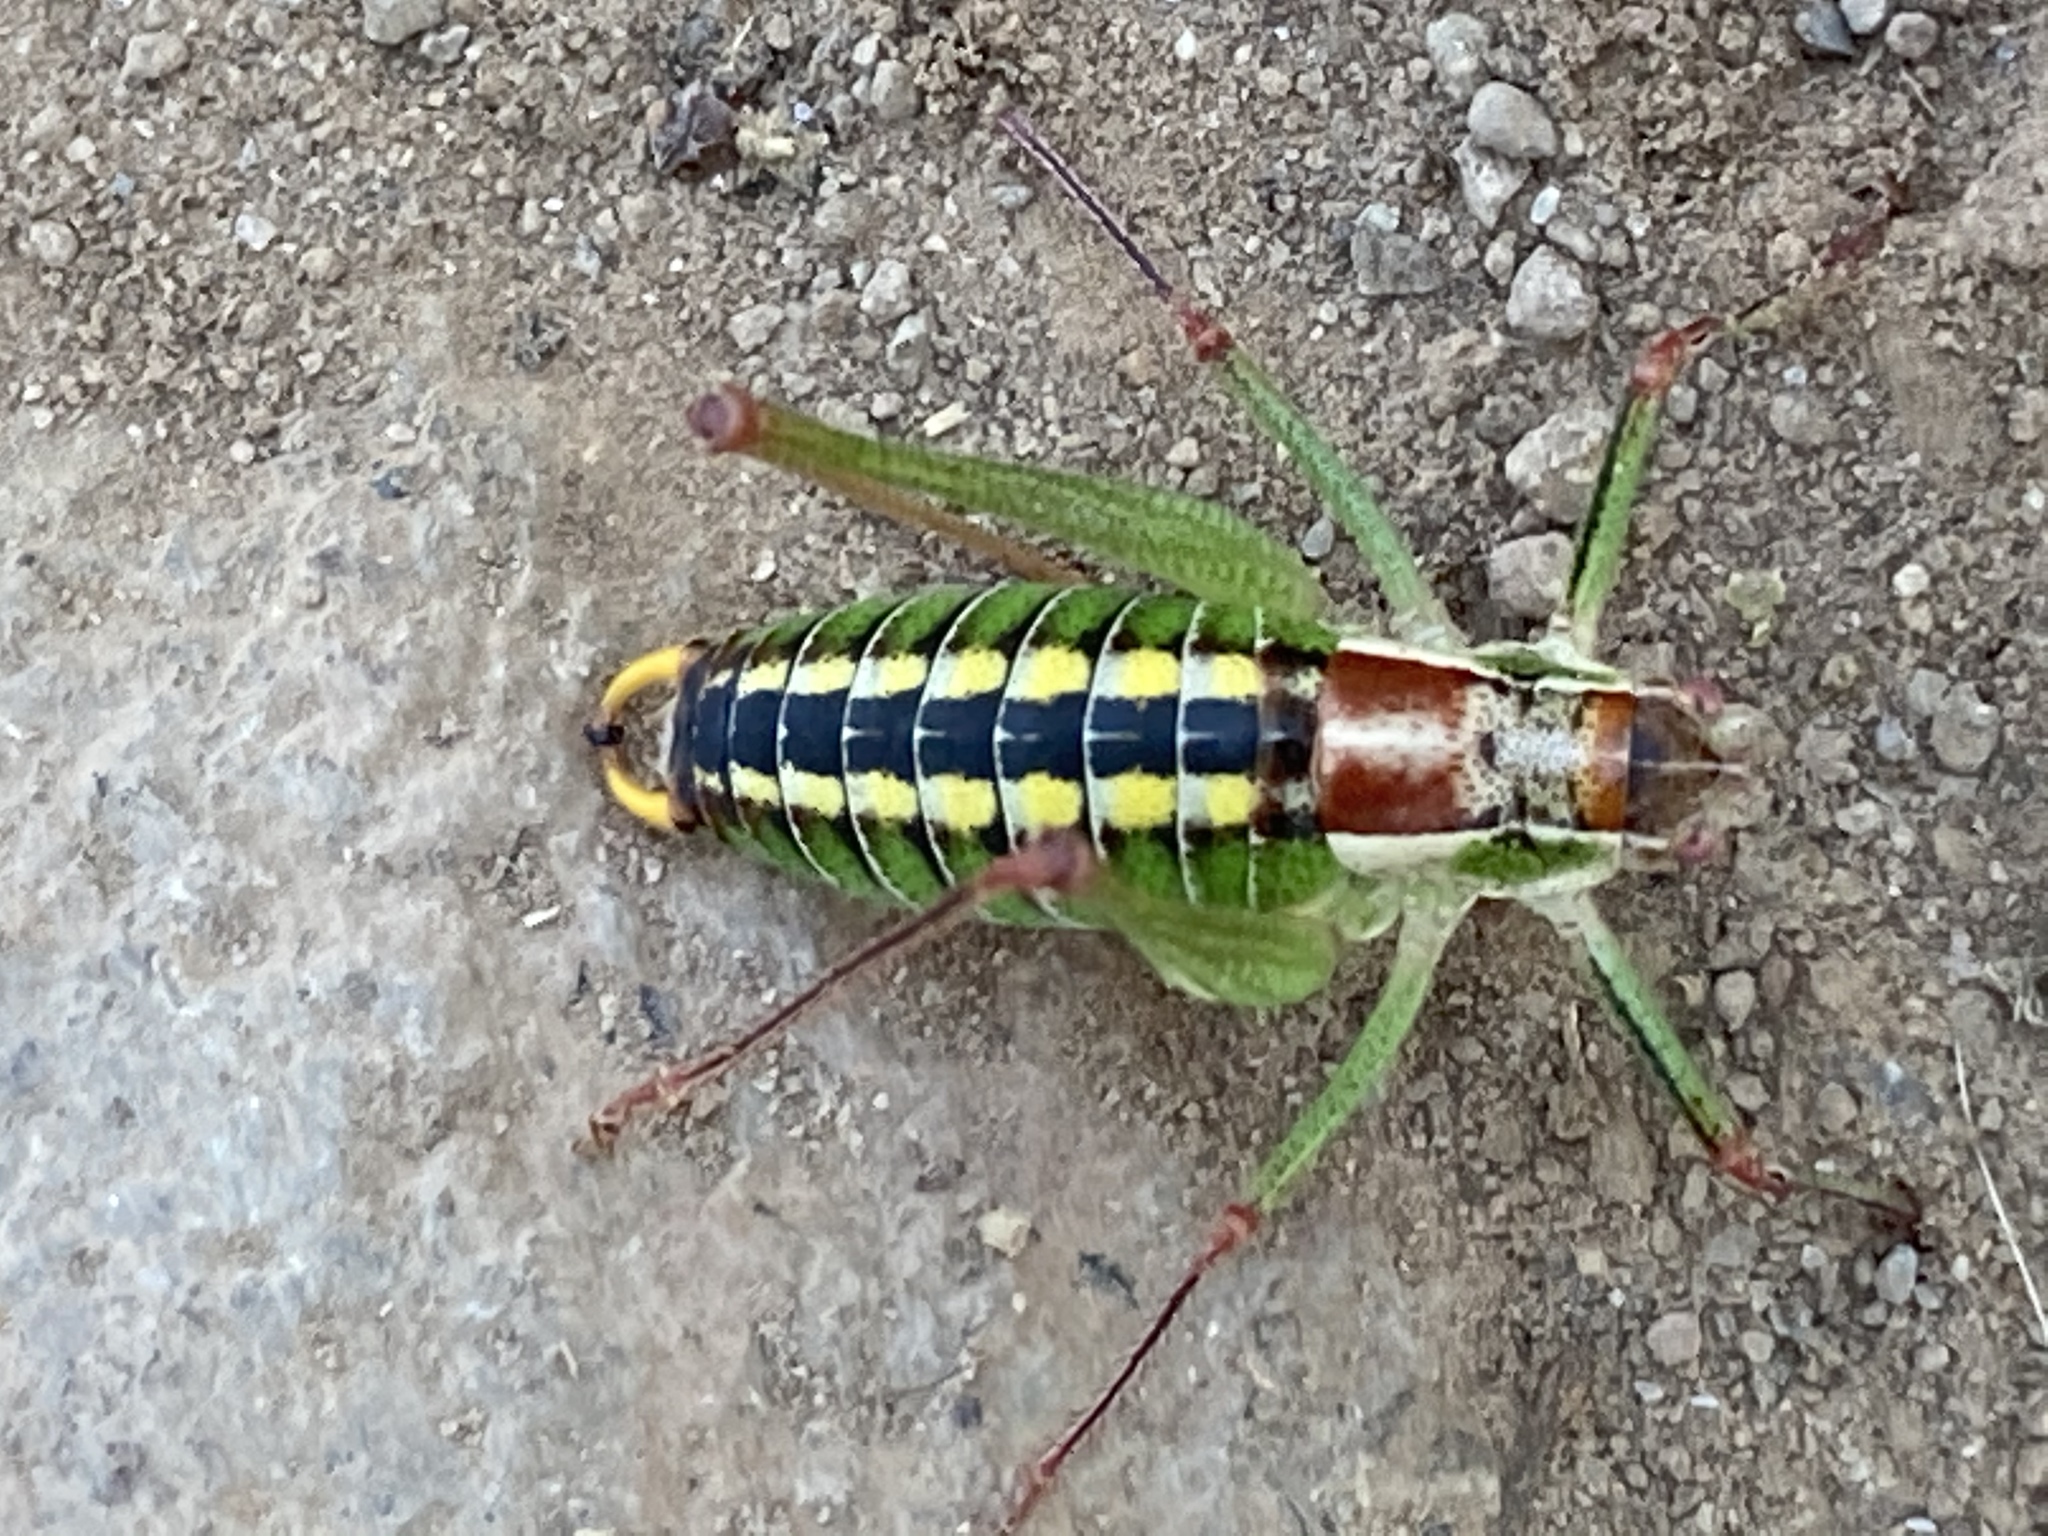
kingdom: Animalia
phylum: Arthropoda
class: Insecta
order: Orthoptera
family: Tettigoniidae
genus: Poecilimon
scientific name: Poecilimon mytilenensis
